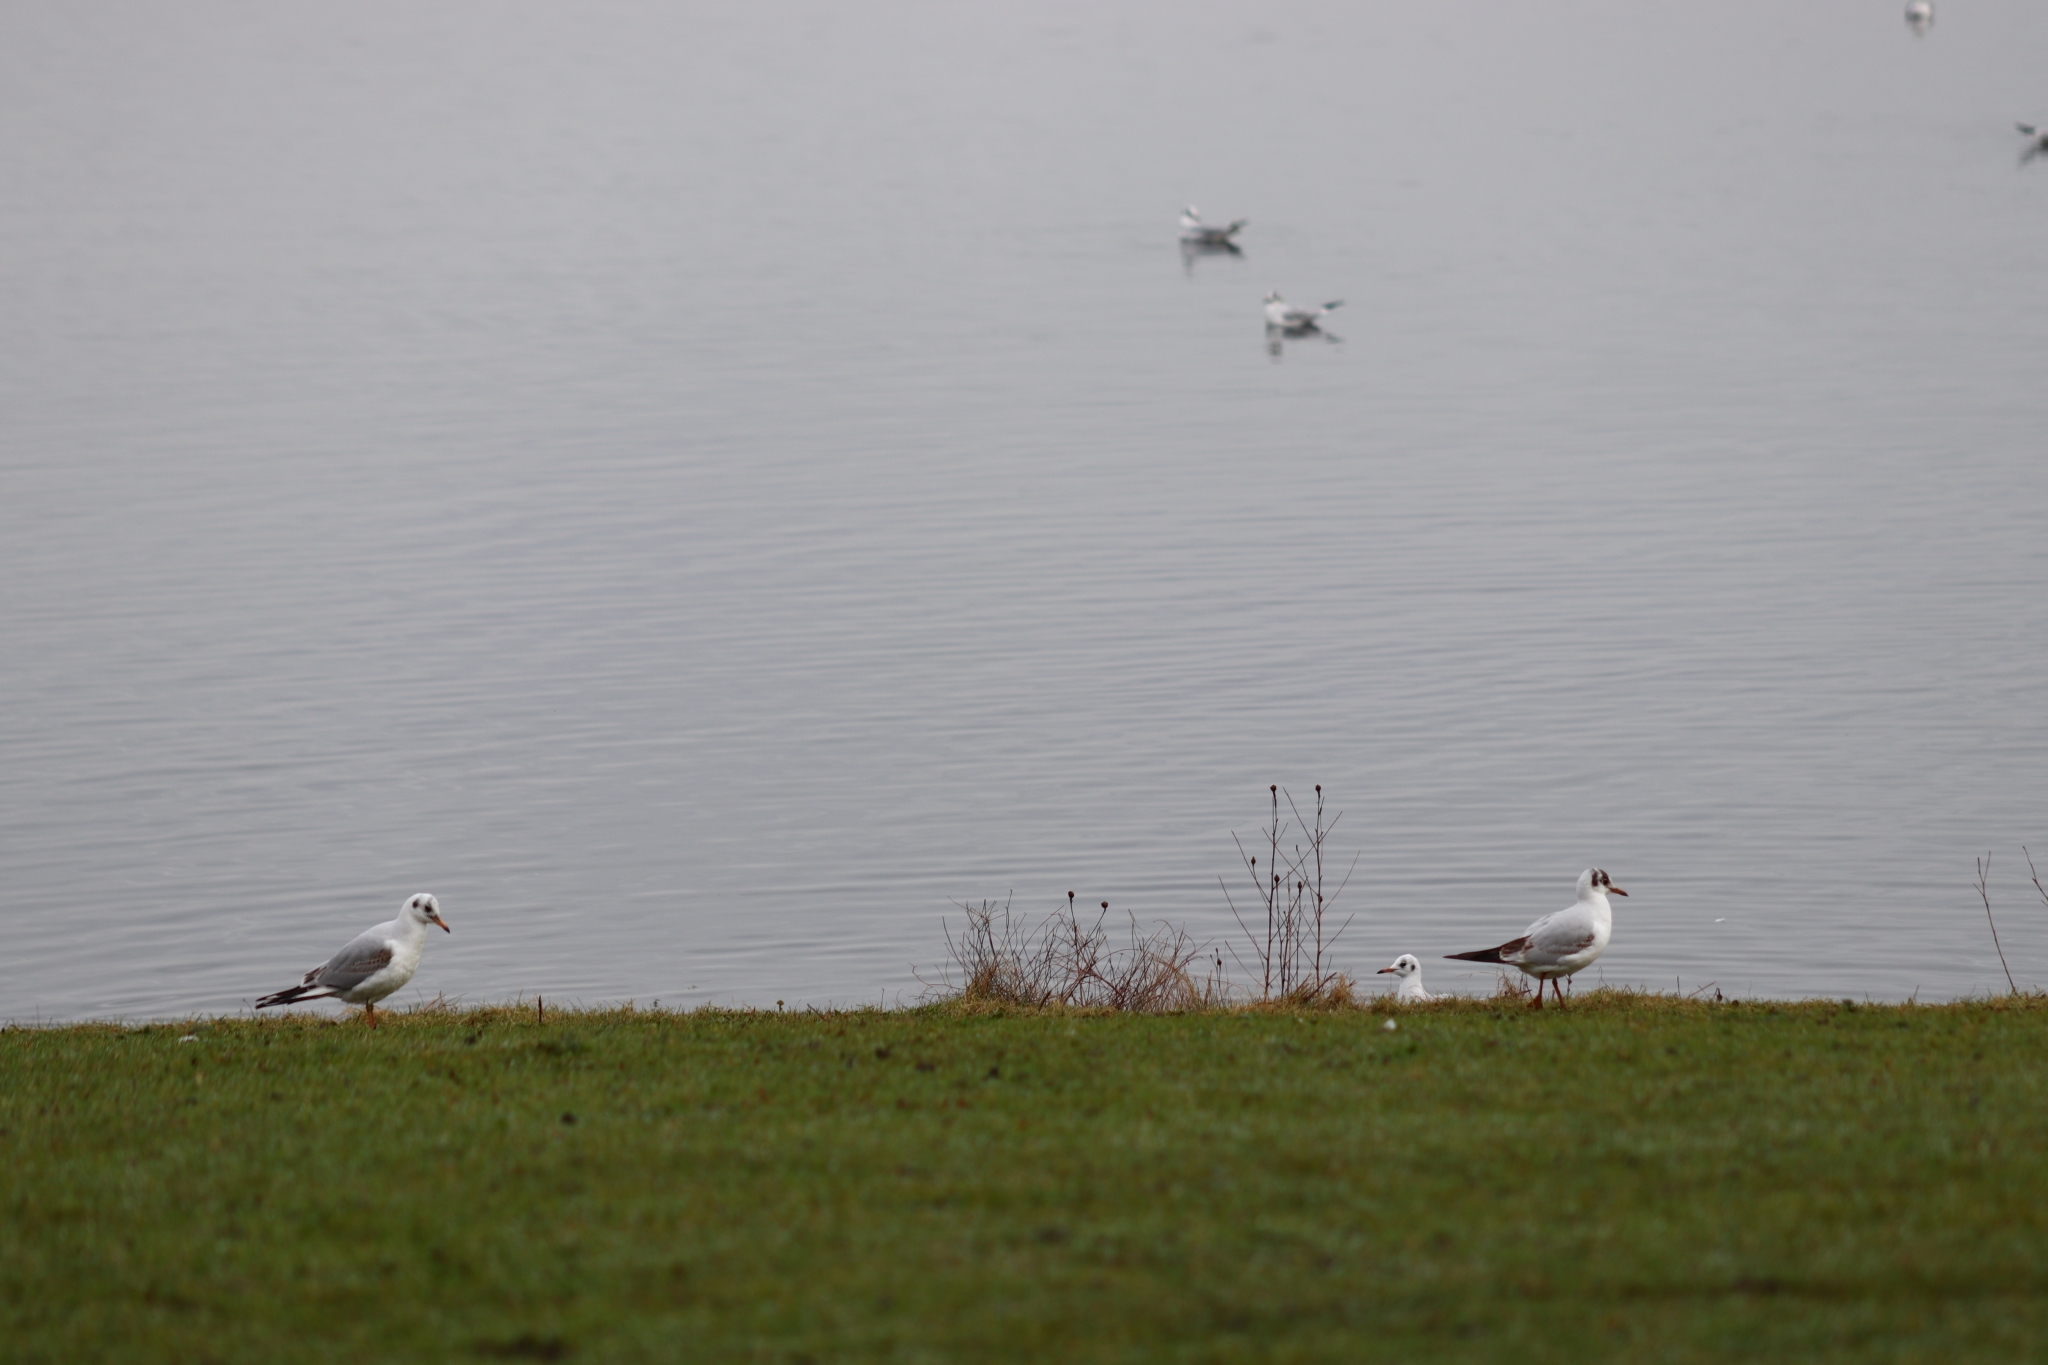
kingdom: Animalia
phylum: Chordata
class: Aves
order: Charadriiformes
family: Laridae
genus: Chroicocephalus
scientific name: Chroicocephalus ridibundus
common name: Black-headed gull
